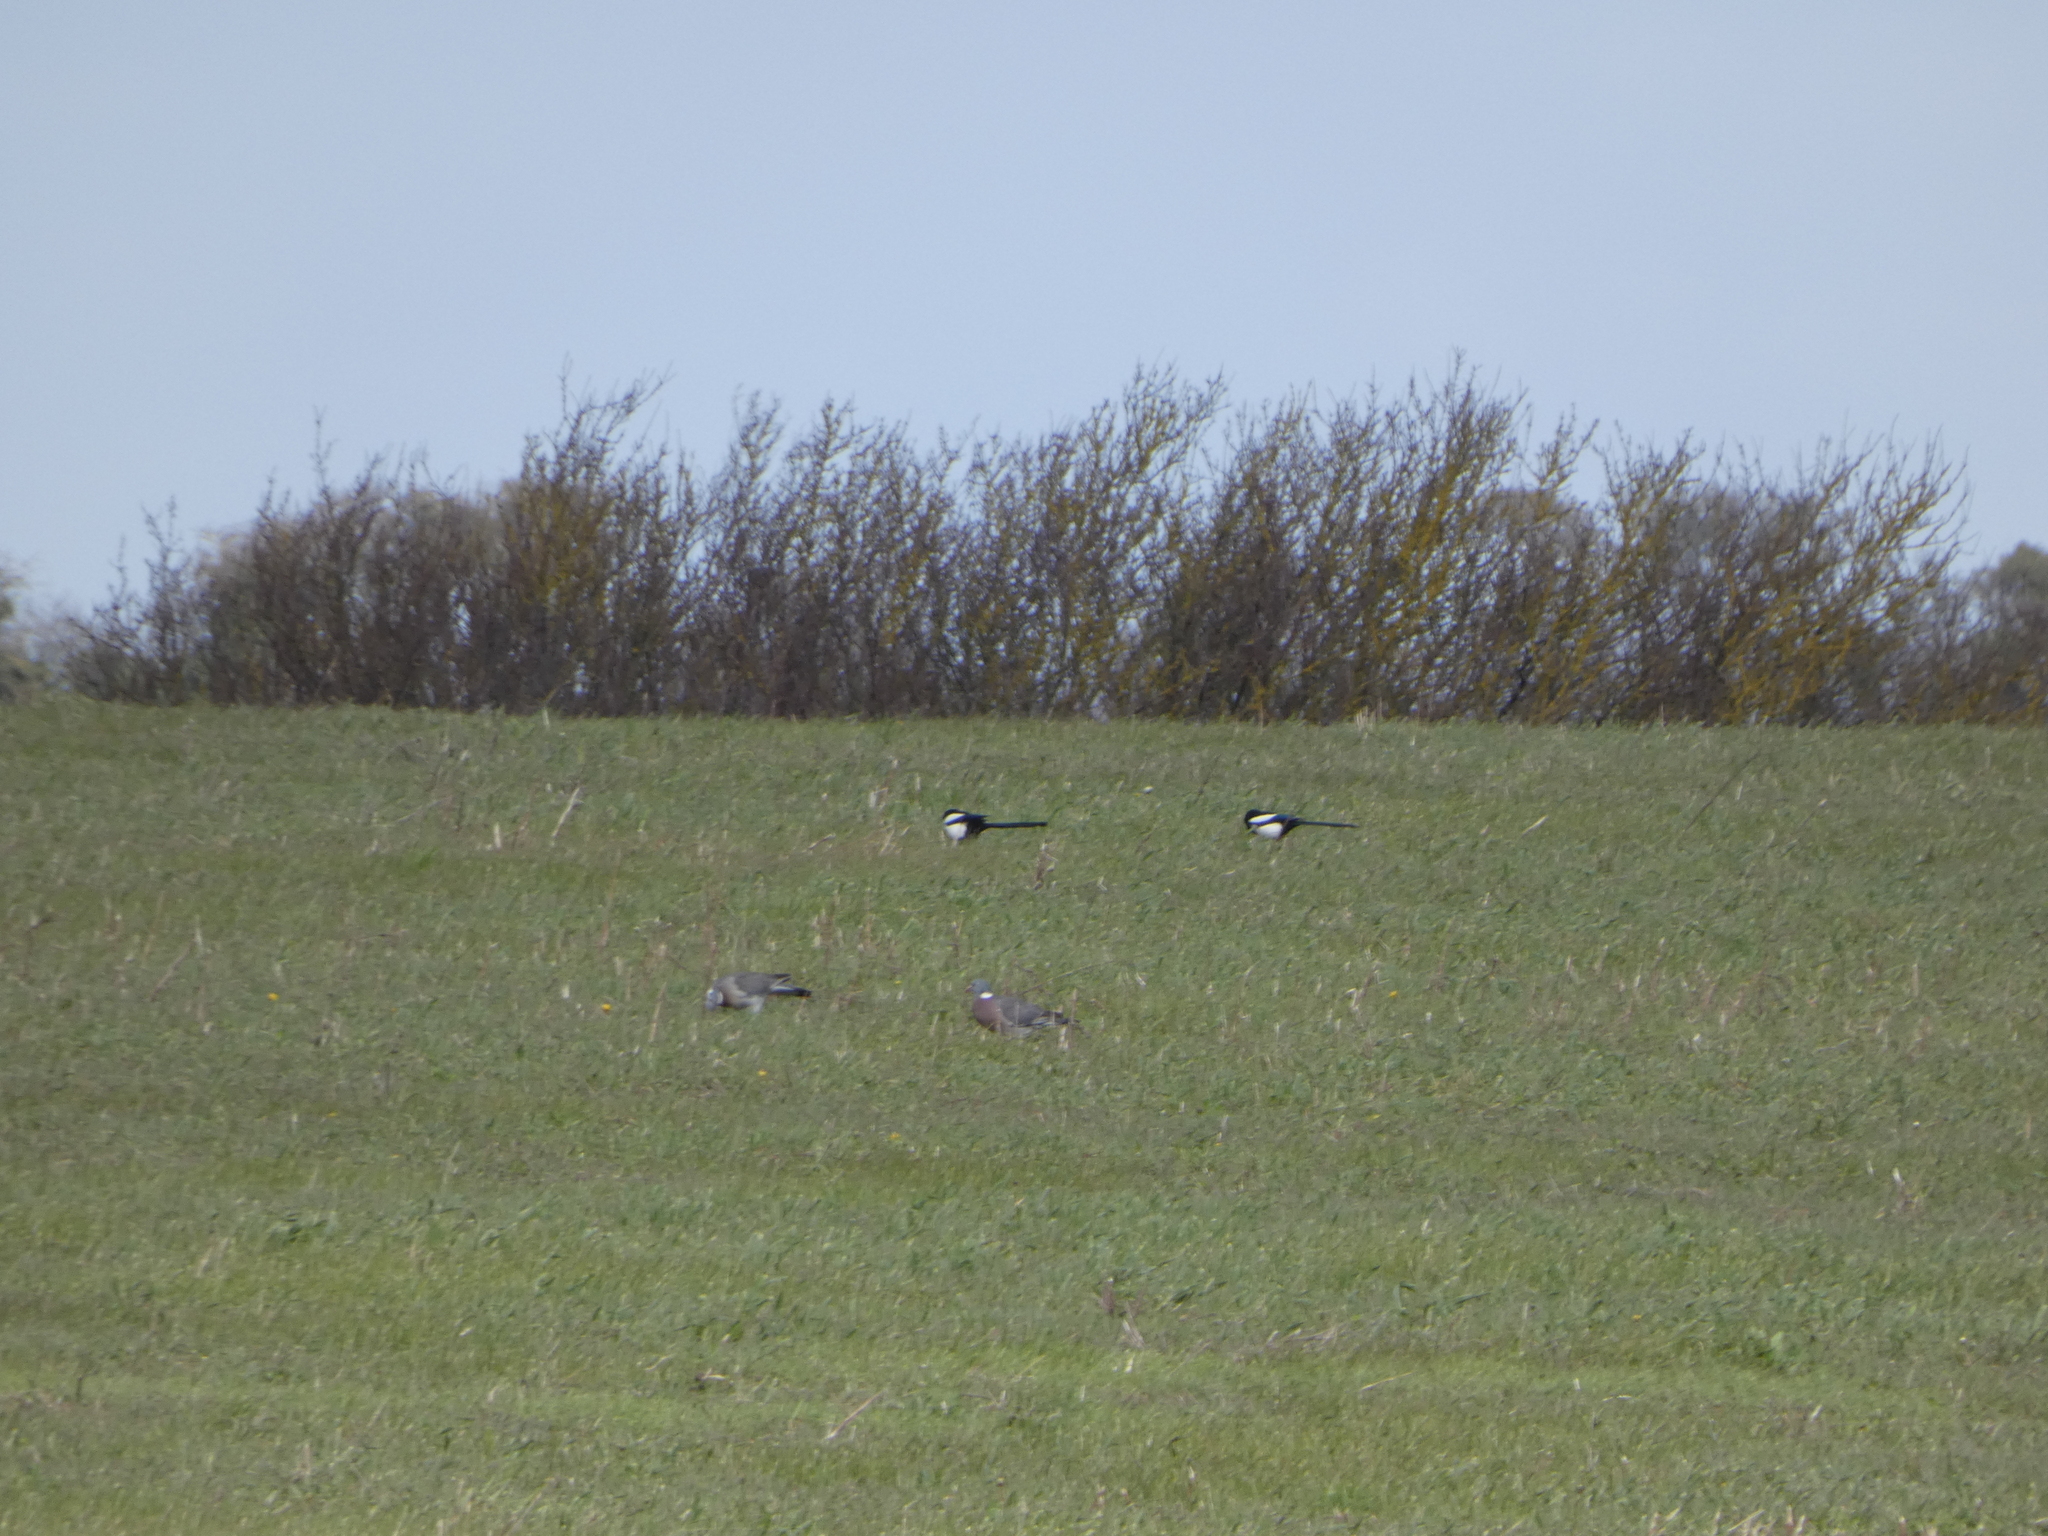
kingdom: Animalia
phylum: Chordata
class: Aves
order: Passeriformes
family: Corvidae
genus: Pica
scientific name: Pica pica
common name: Eurasian magpie
